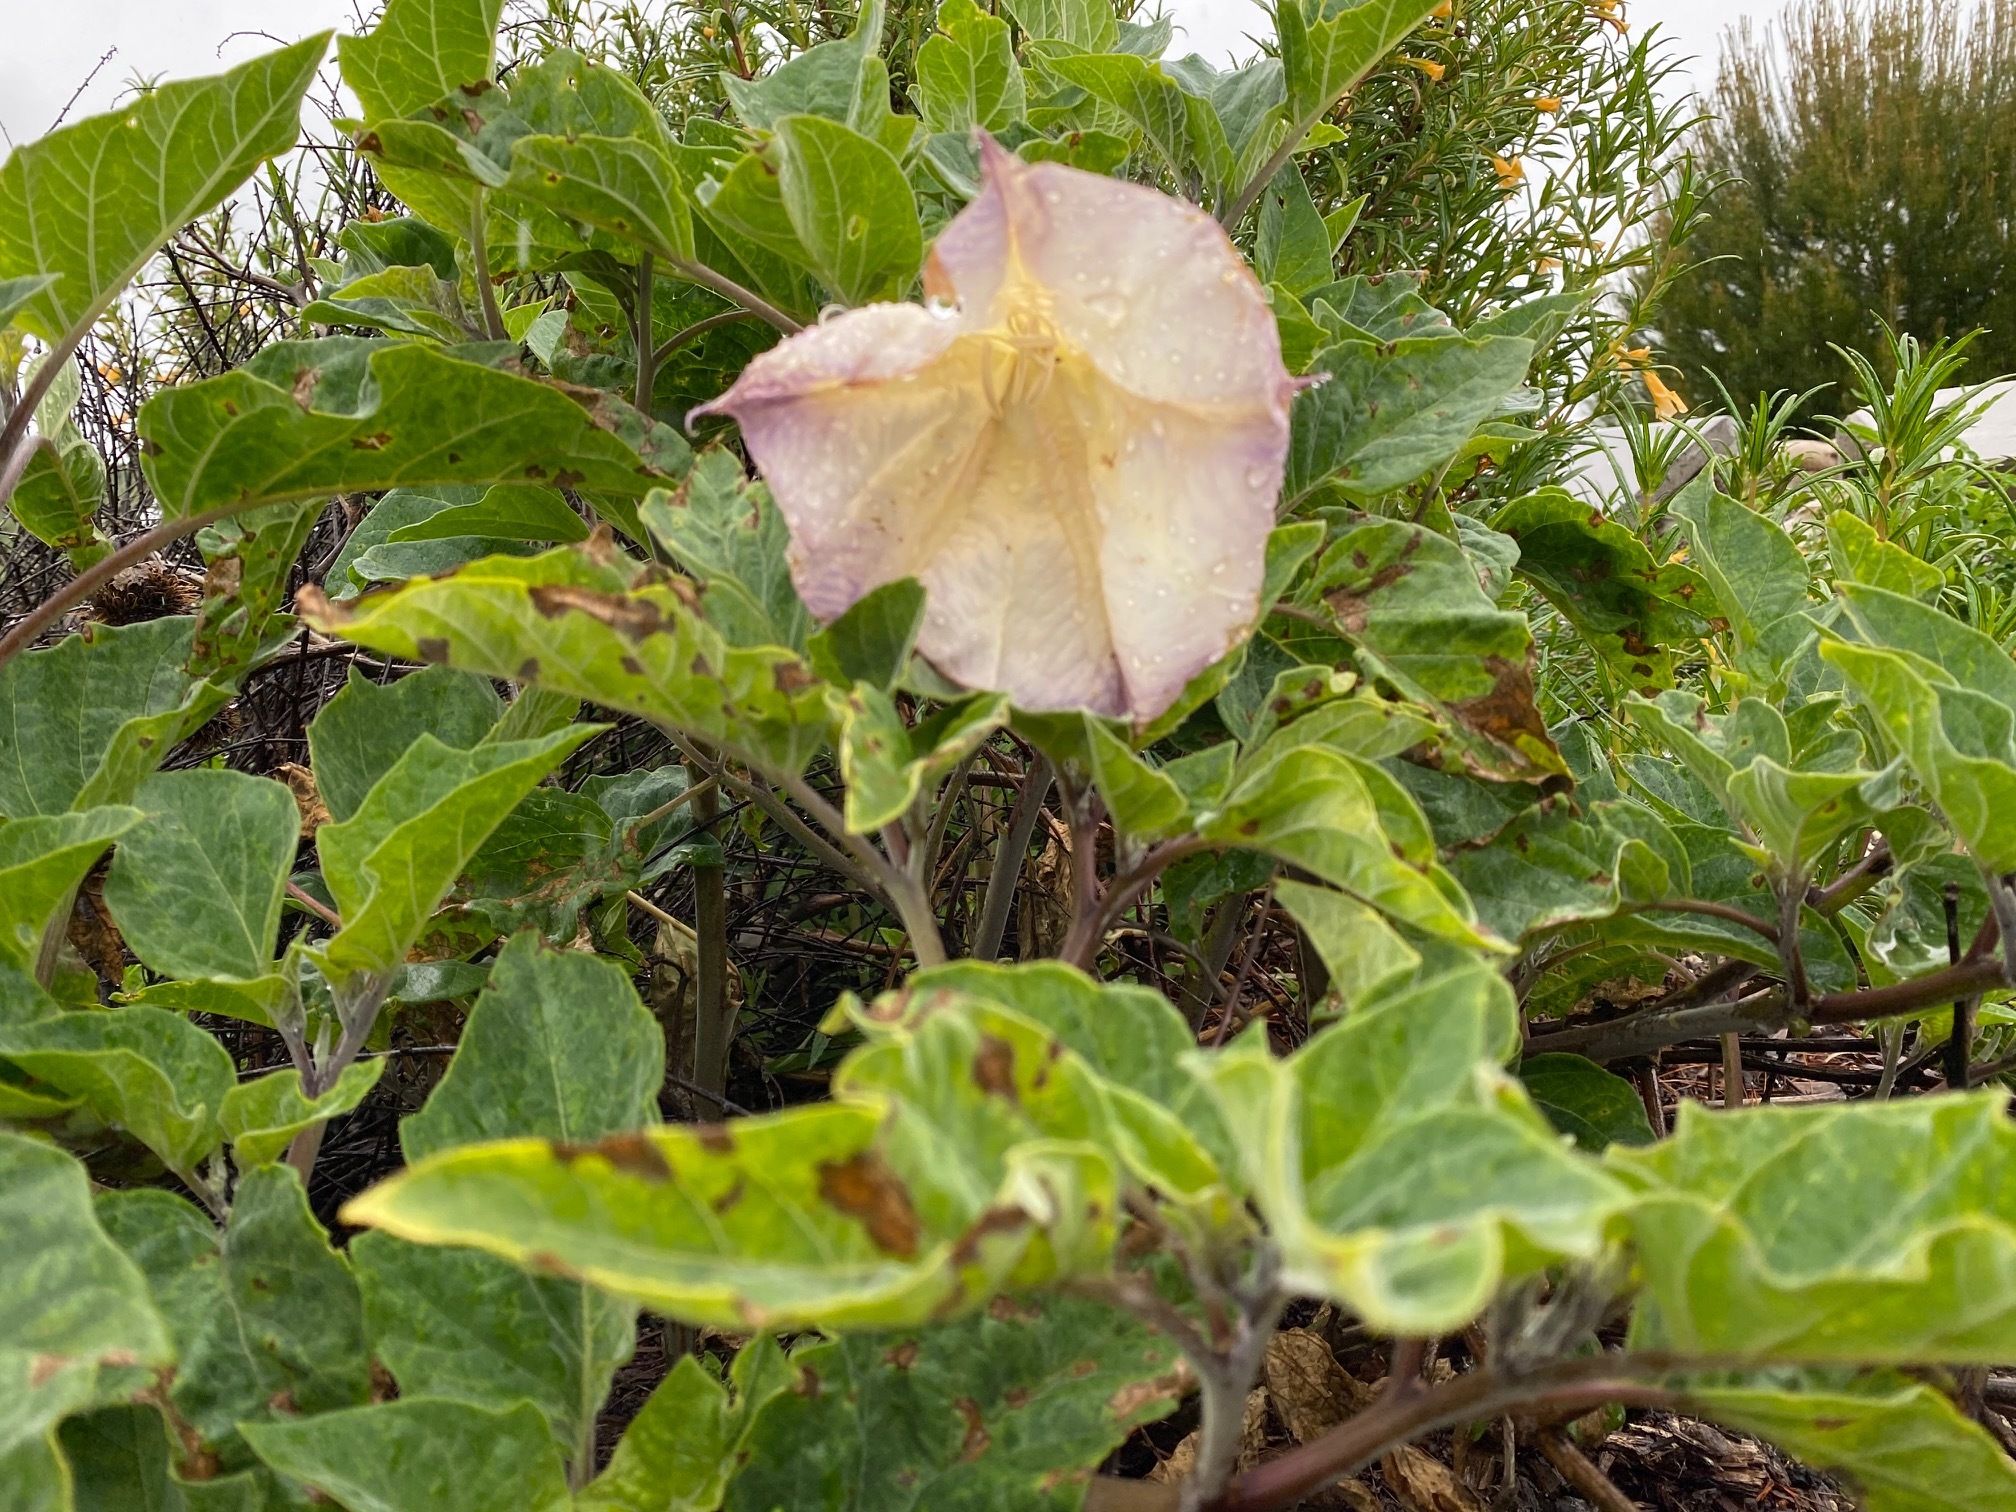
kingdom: Plantae
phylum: Tracheophyta
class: Magnoliopsida
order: Solanales
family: Solanaceae
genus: Datura
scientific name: Datura wrightii
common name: Sacred thorn-apple
